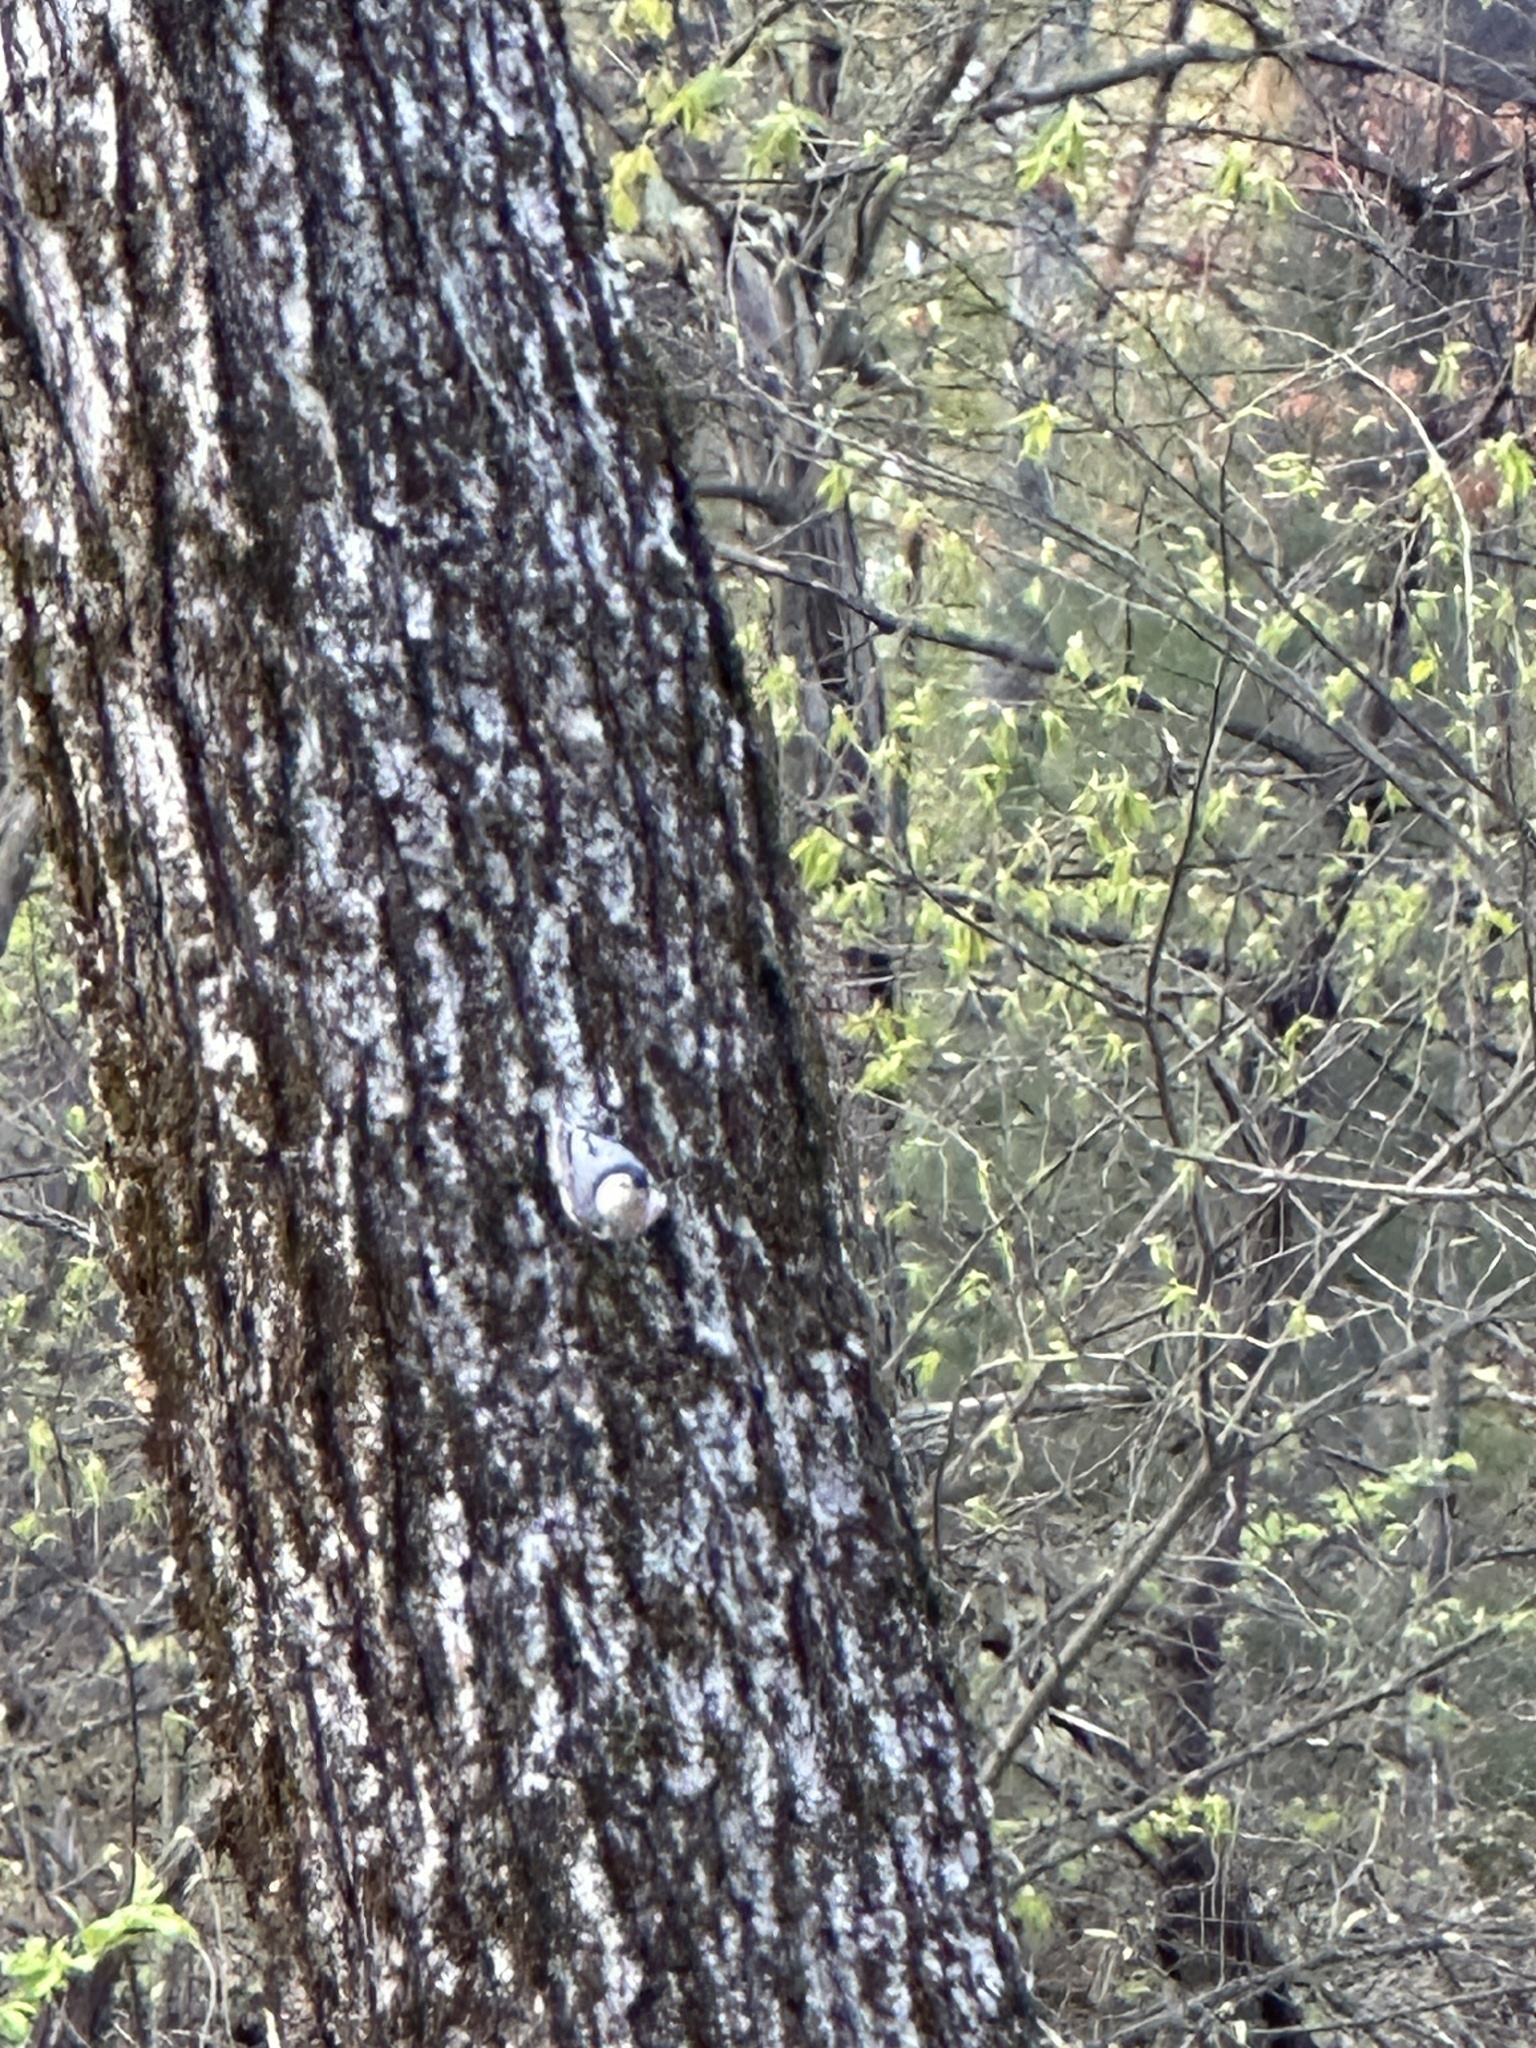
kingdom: Animalia
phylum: Chordata
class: Aves
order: Passeriformes
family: Sittidae
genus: Sitta
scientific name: Sitta carolinensis
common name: White-breasted nuthatch
